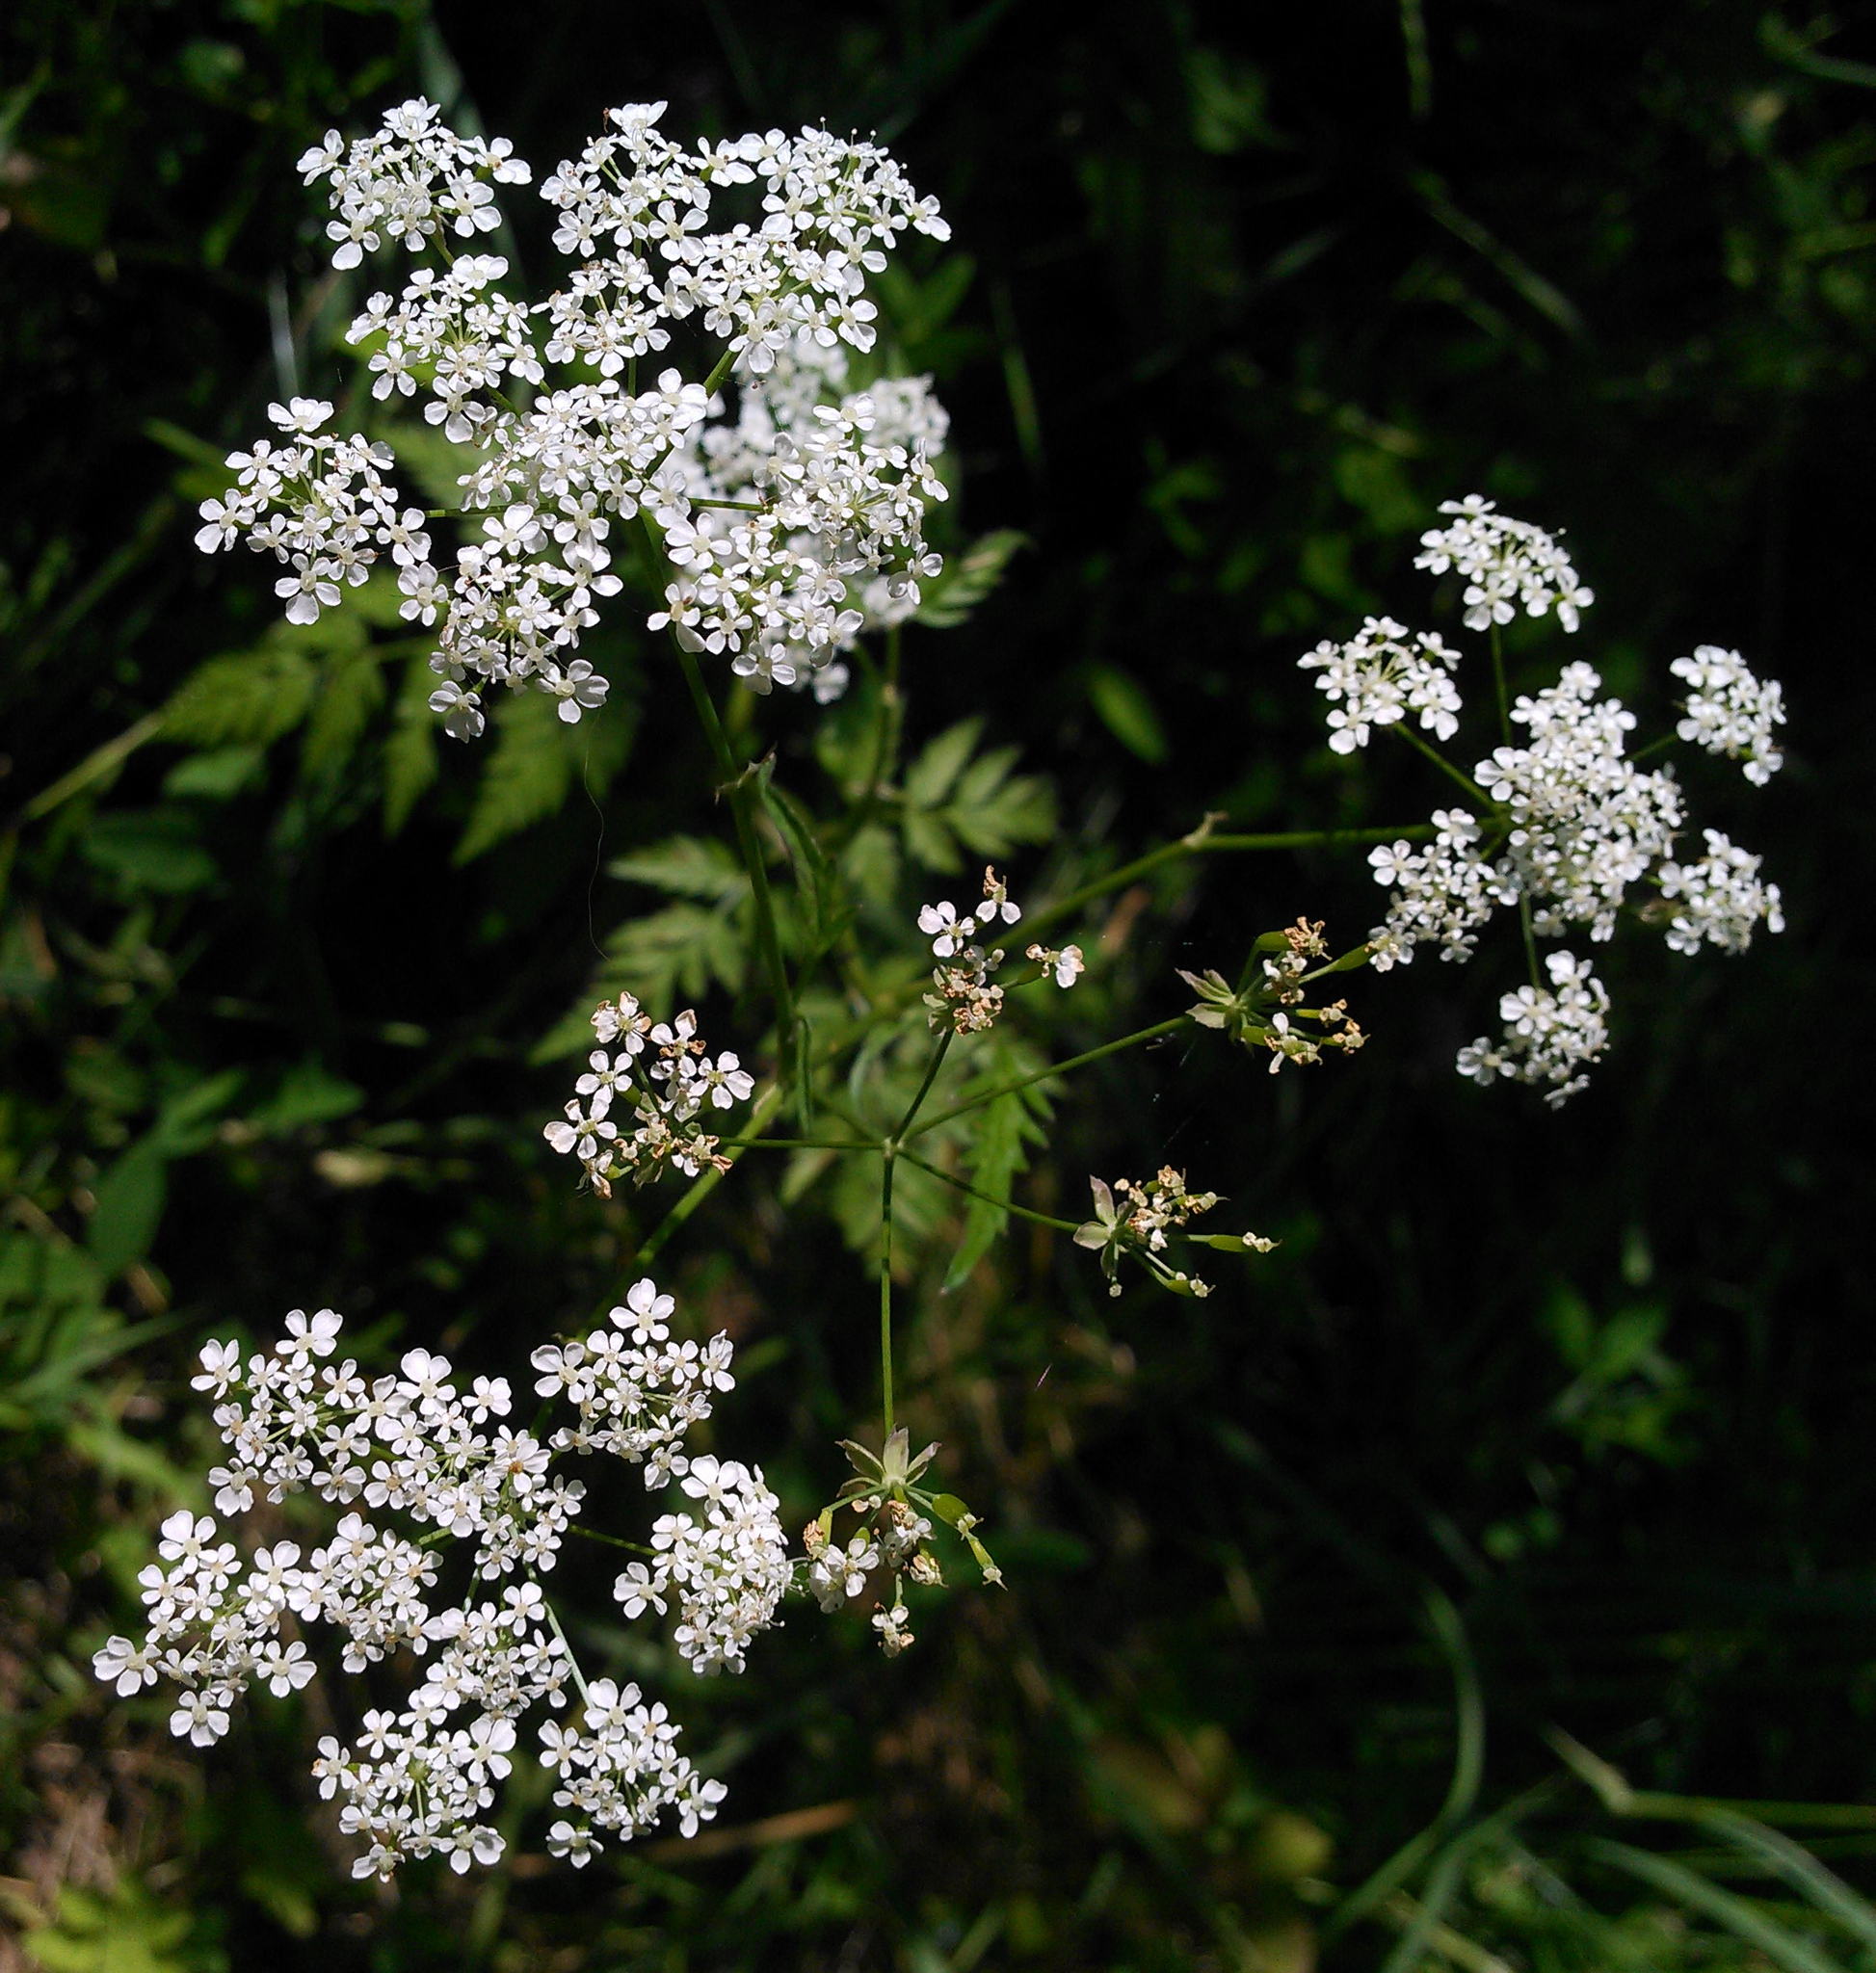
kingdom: Plantae
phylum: Tracheophyta
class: Magnoliopsida
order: Apiales
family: Apiaceae
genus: Anthriscus
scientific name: Anthriscus sylvestris
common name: Cow parsley
